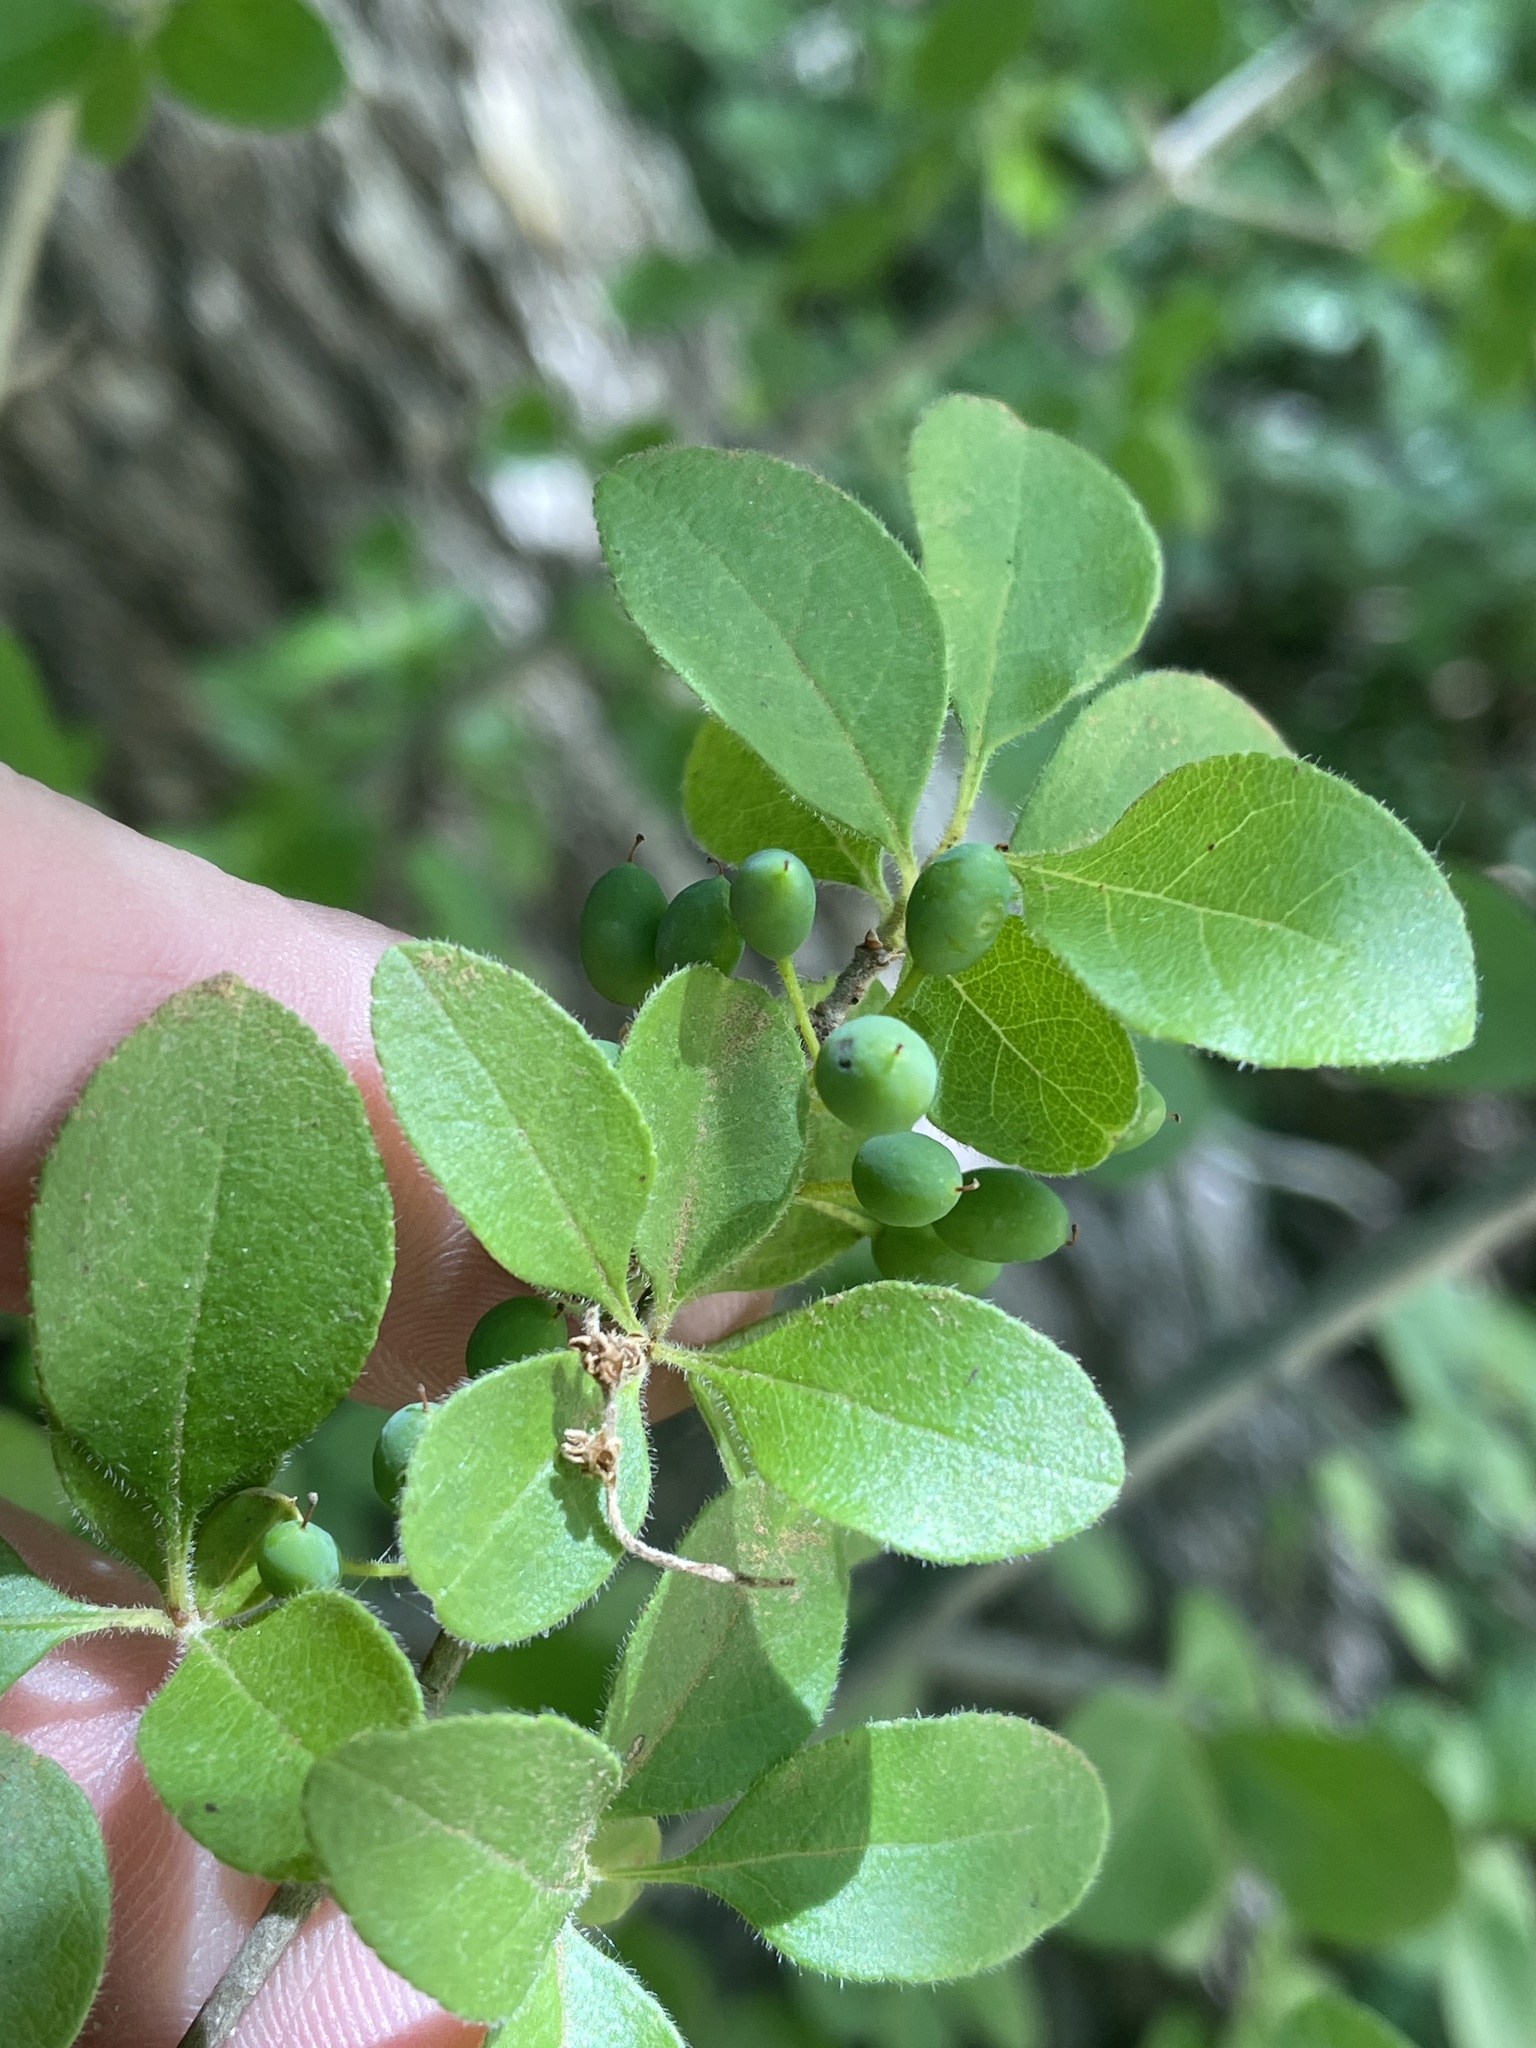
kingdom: Plantae
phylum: Tracheophyta
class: Magnoliopsida
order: Lamiales
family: Oleaceae
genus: Forestiera
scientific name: Forestiera pubescens
